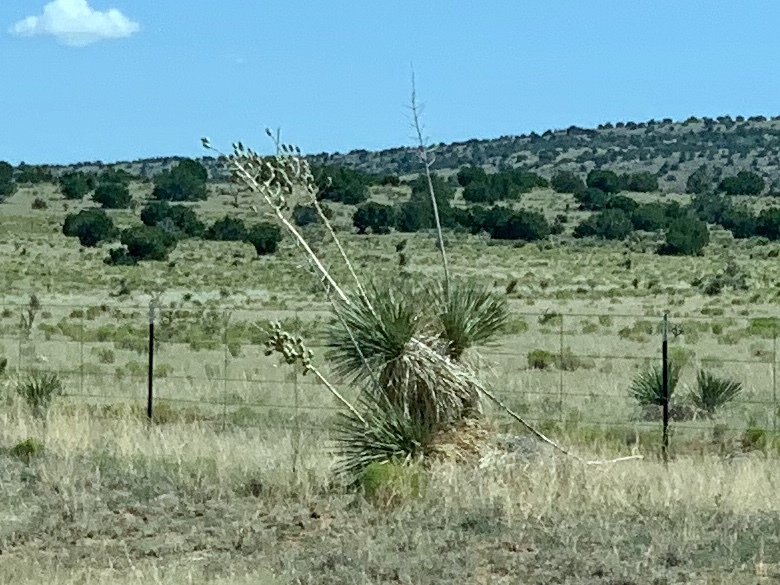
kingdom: Plantae
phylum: Tracheophyta
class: Liliopsida
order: Asparagales
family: Asparagaceae
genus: Yucca
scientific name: Yucca elata
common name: Palmella
